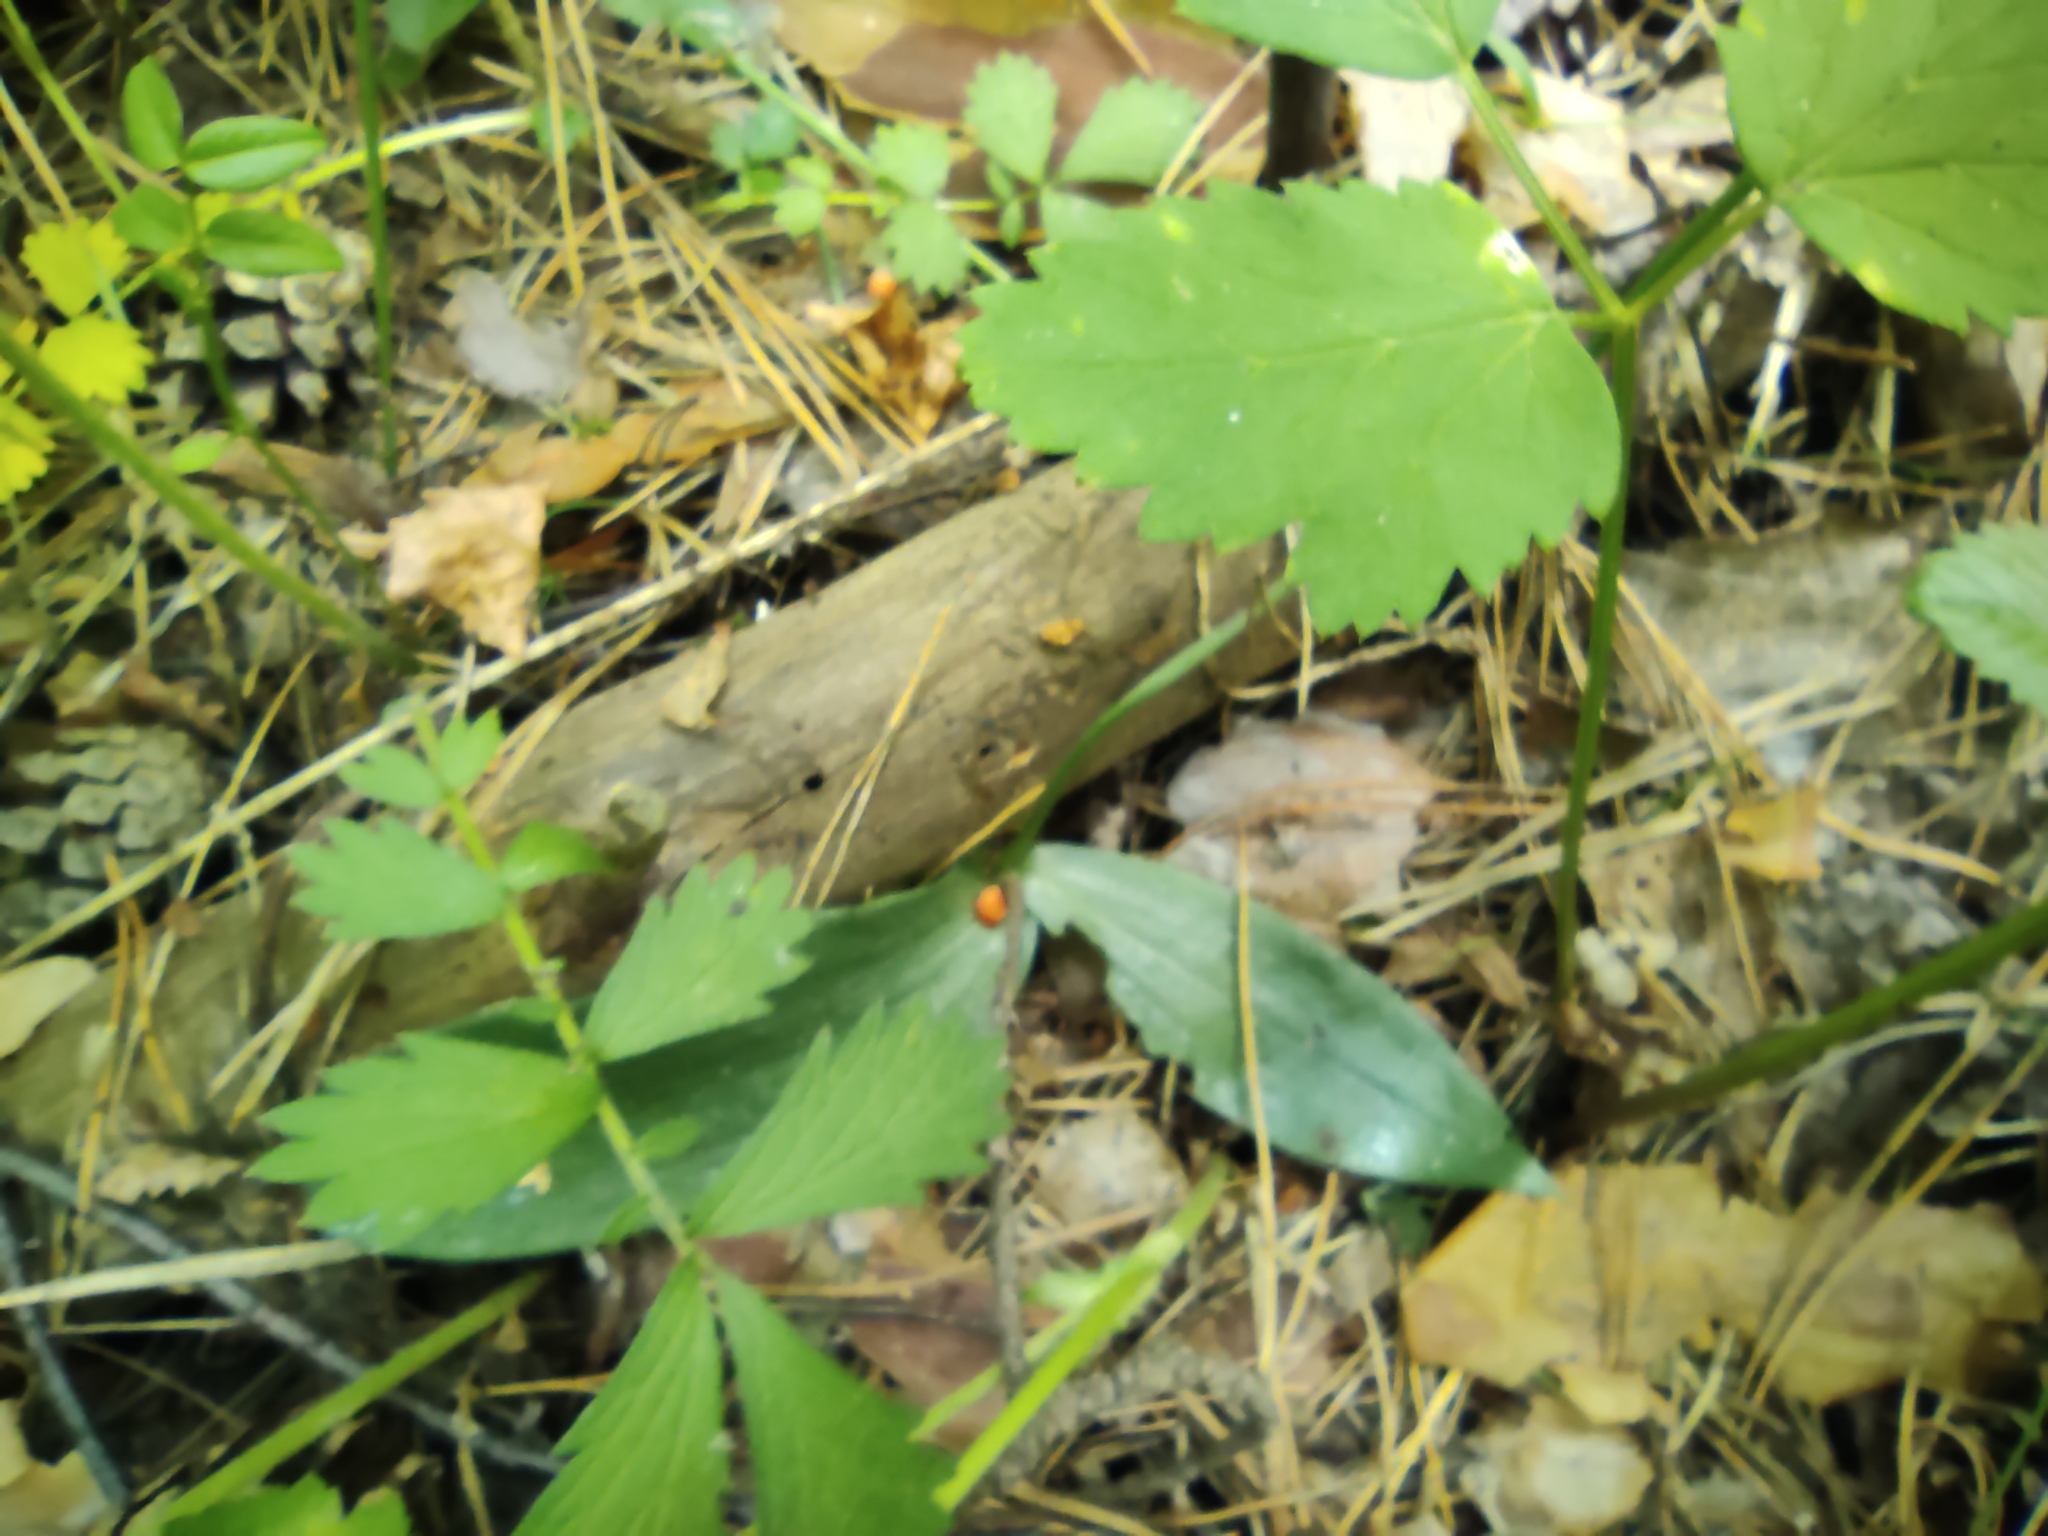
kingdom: Plantae
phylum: Tracheophyta
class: Liliopsida
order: Asparagales
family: Orchidaceae
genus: Hemipilia
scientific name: Hemipilia cucullata
